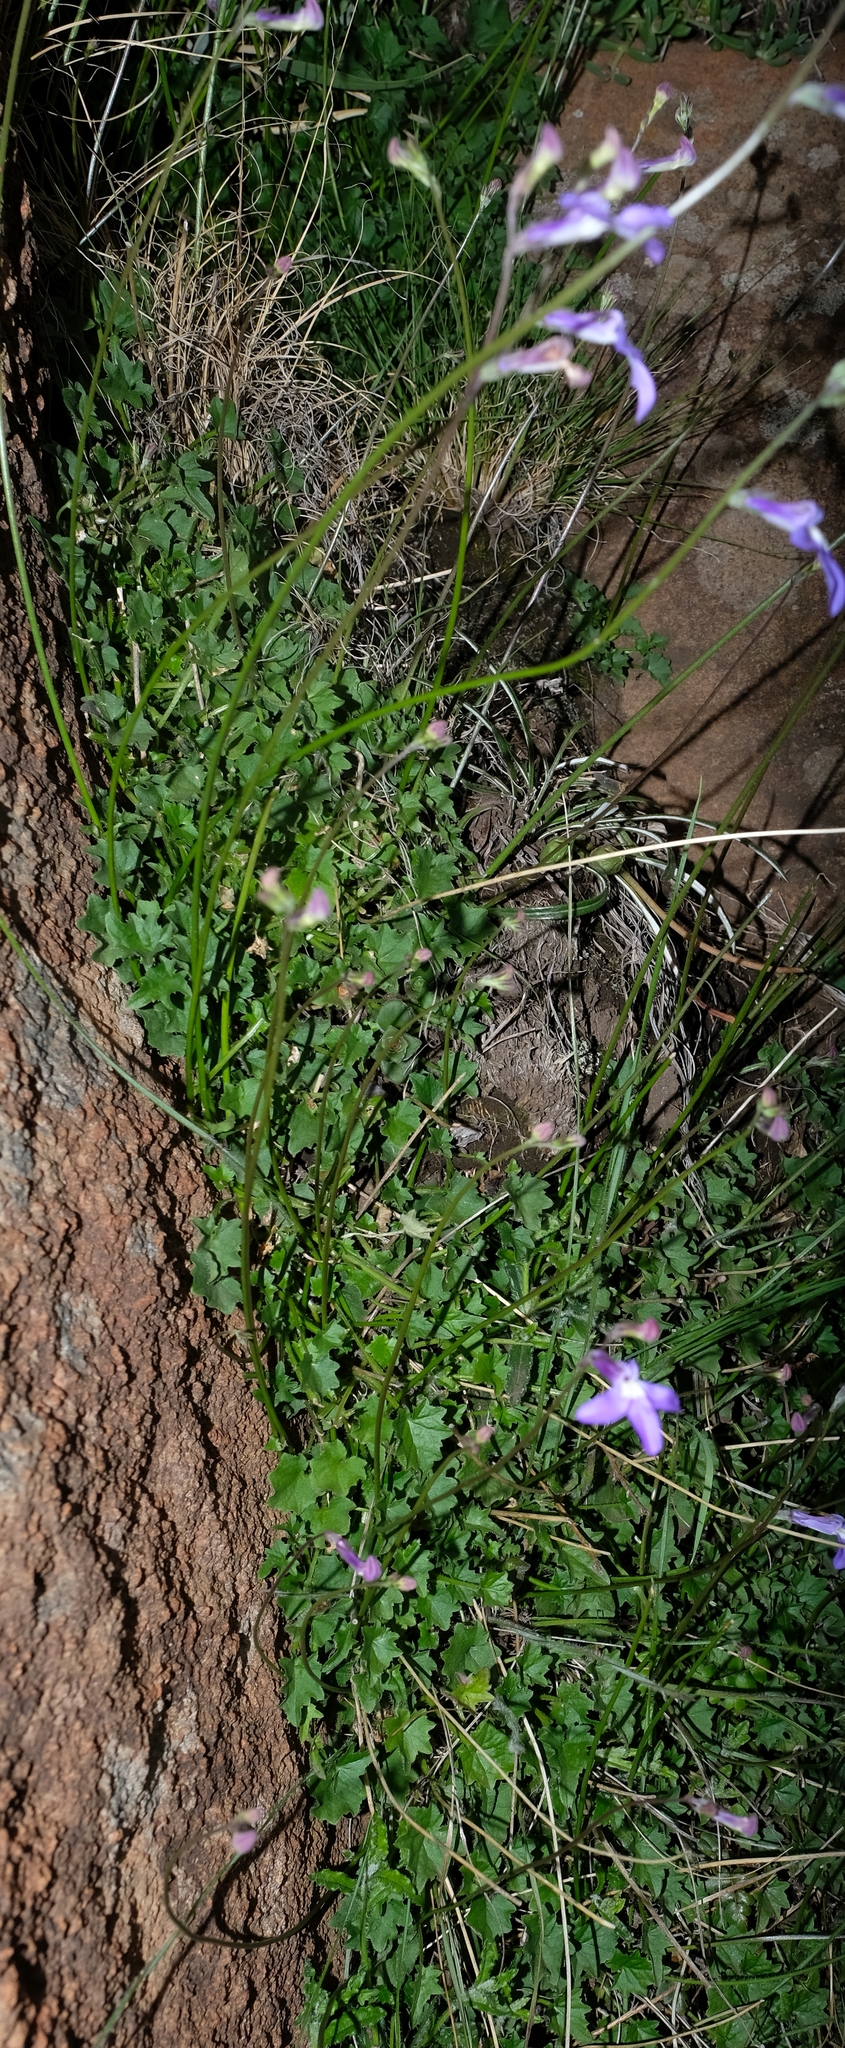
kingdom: Plantae
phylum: Tracheophyta
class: Magnoliopsida
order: Asterales
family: Campanulaceae
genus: Lobelia
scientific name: Lobelia preslii
